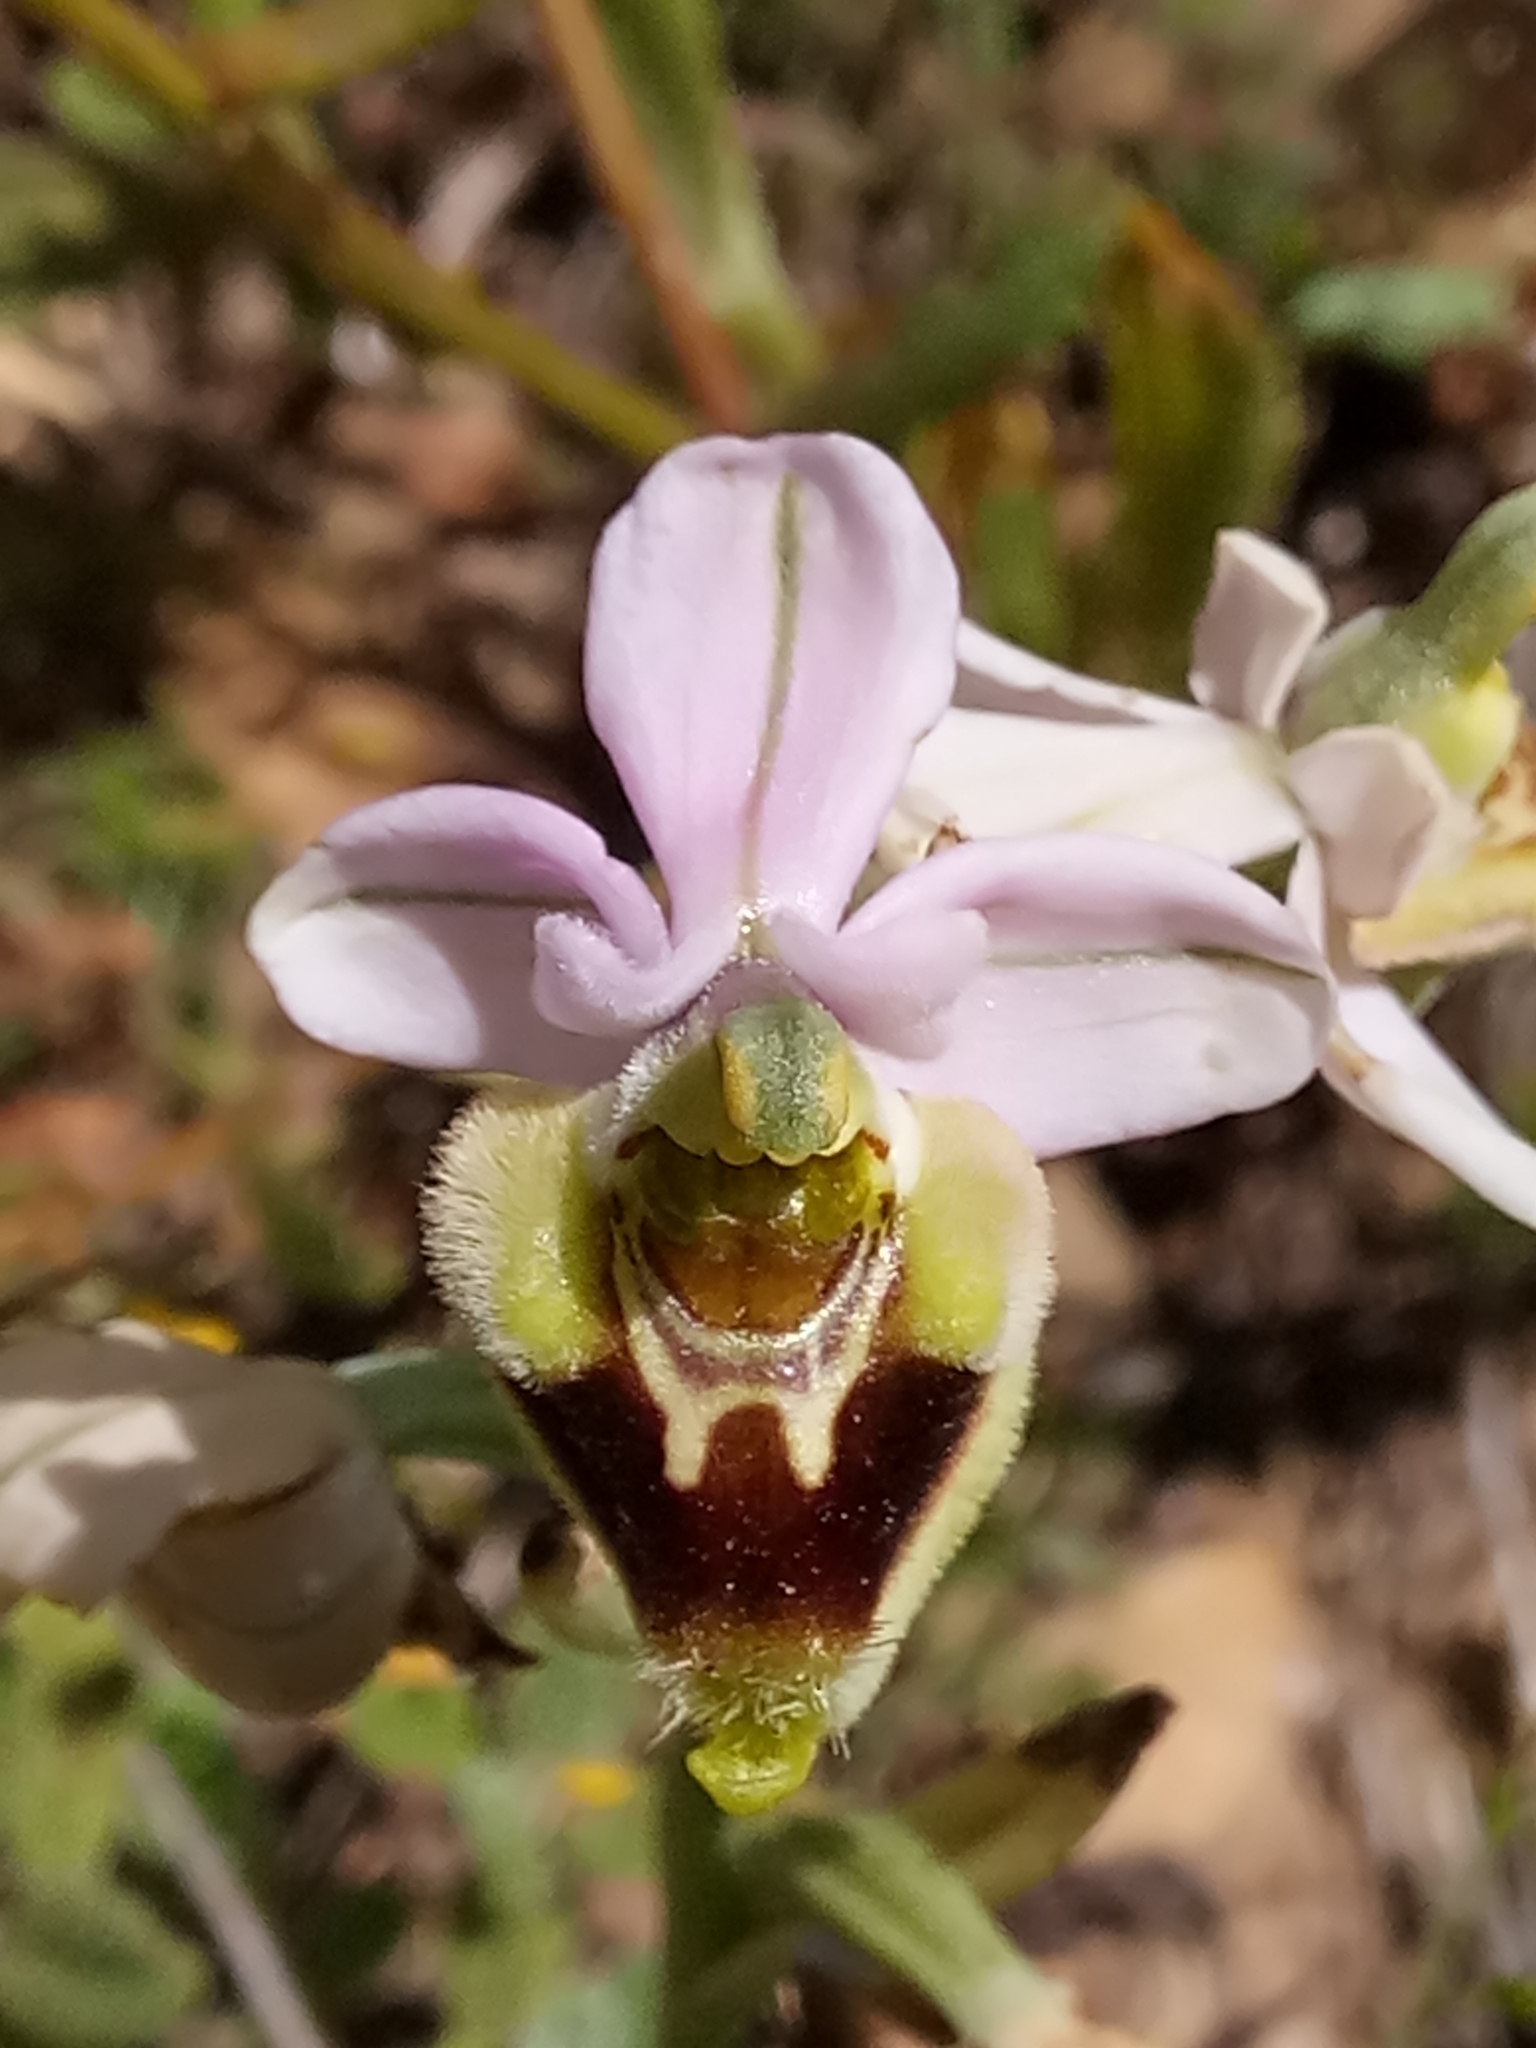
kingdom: Plantae
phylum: Tracheophyta
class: Liliopsida
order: Asparagales
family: Orchidaceae
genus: Ophrys
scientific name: Ophrys tenthredinifera
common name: Sawfly orchid
